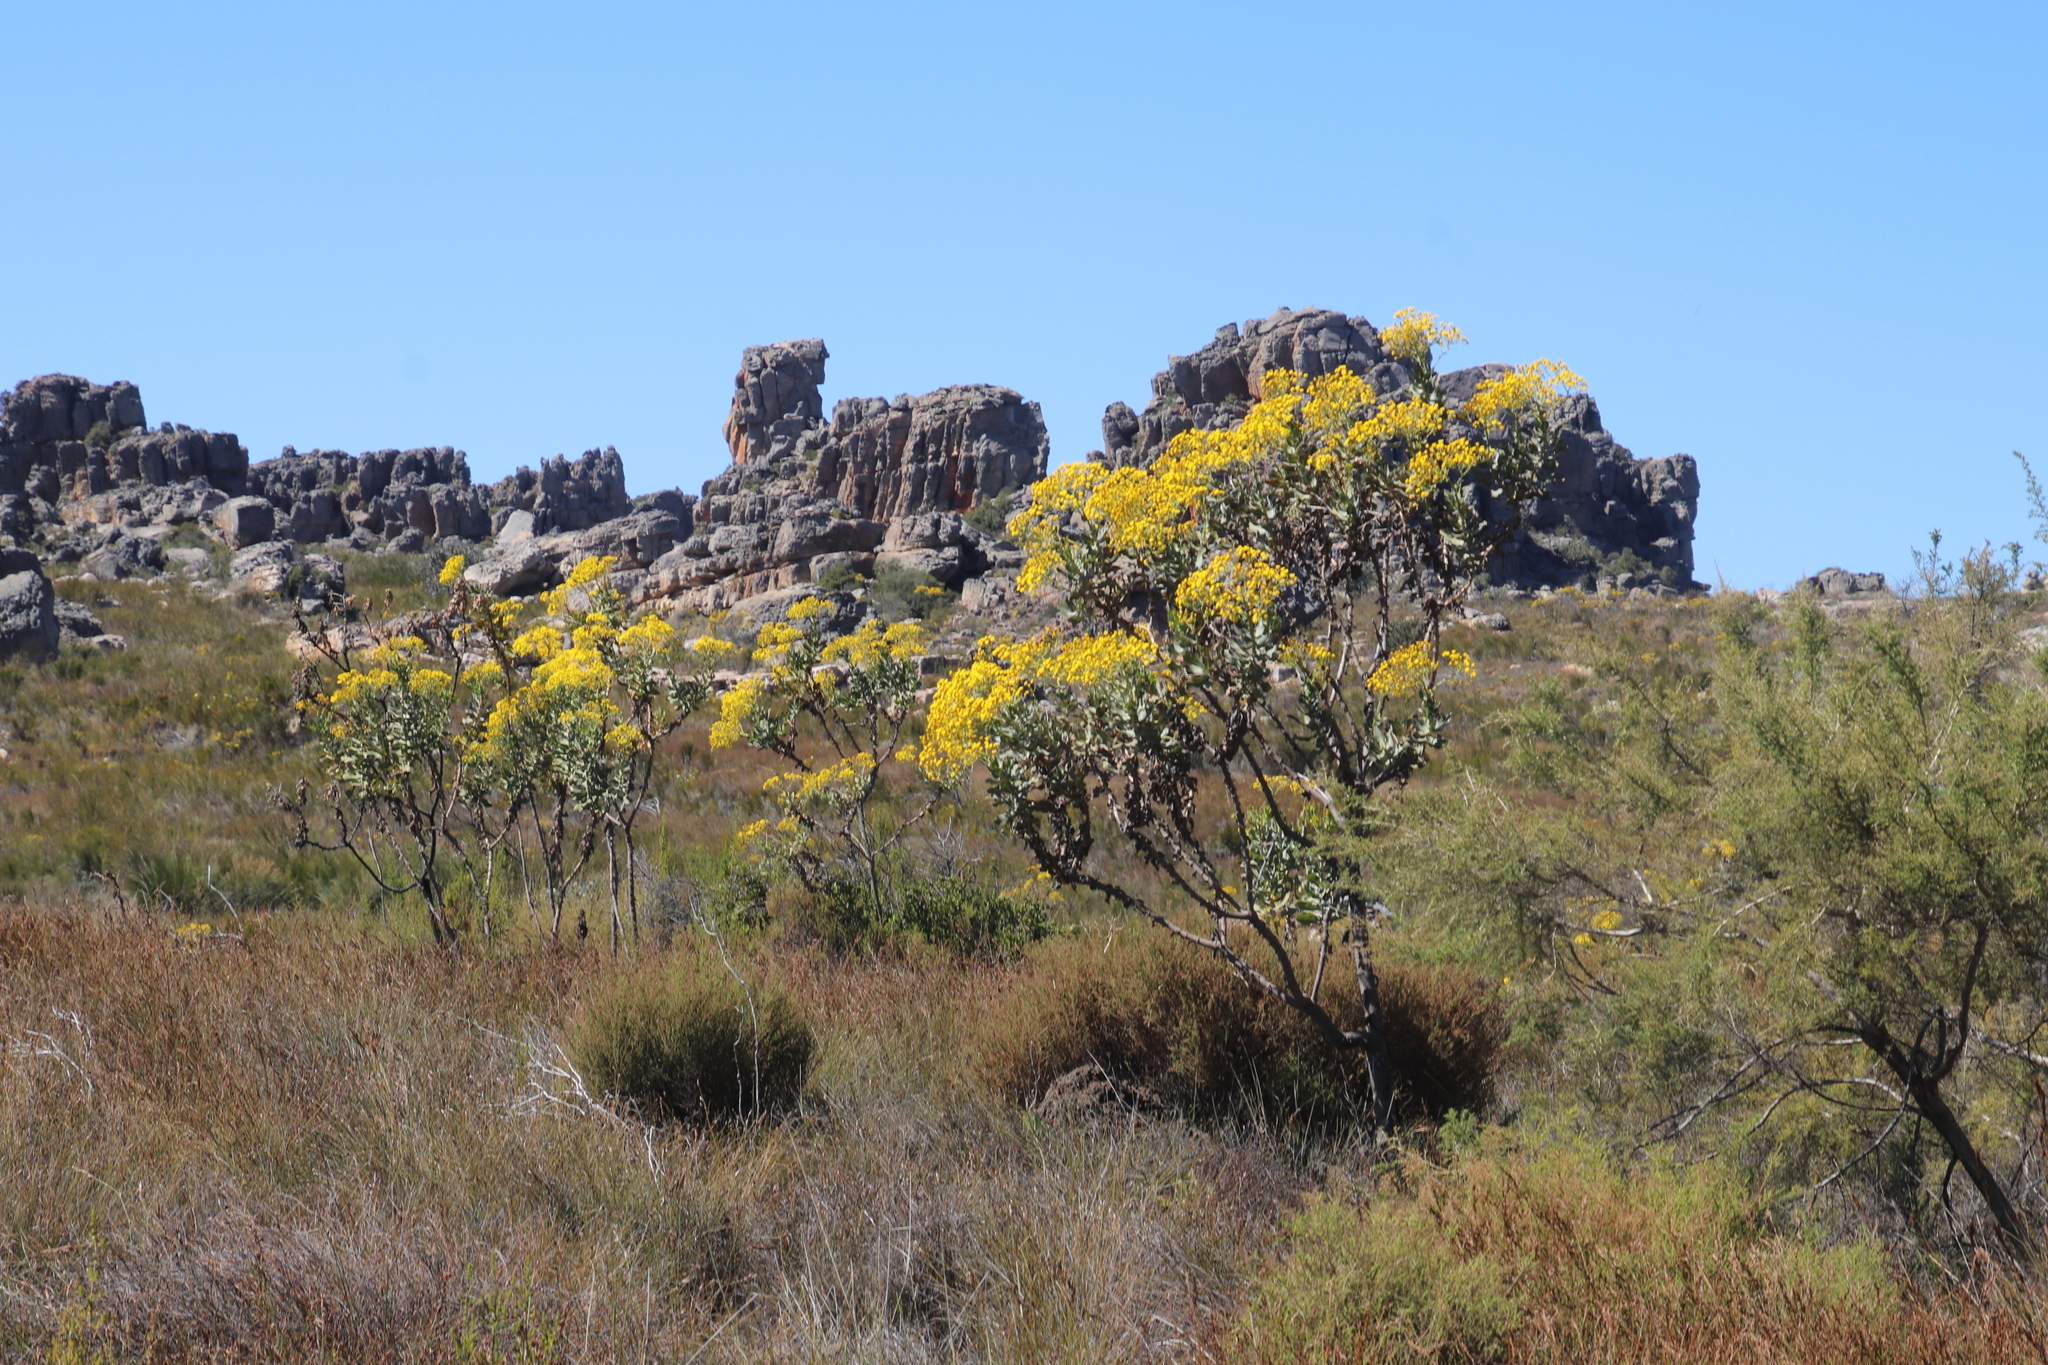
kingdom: Plantae
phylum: Tracheophyta
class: Magnoliopsida
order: Asterales
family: Asteraceae
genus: Othonna
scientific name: Othonna parviflora
